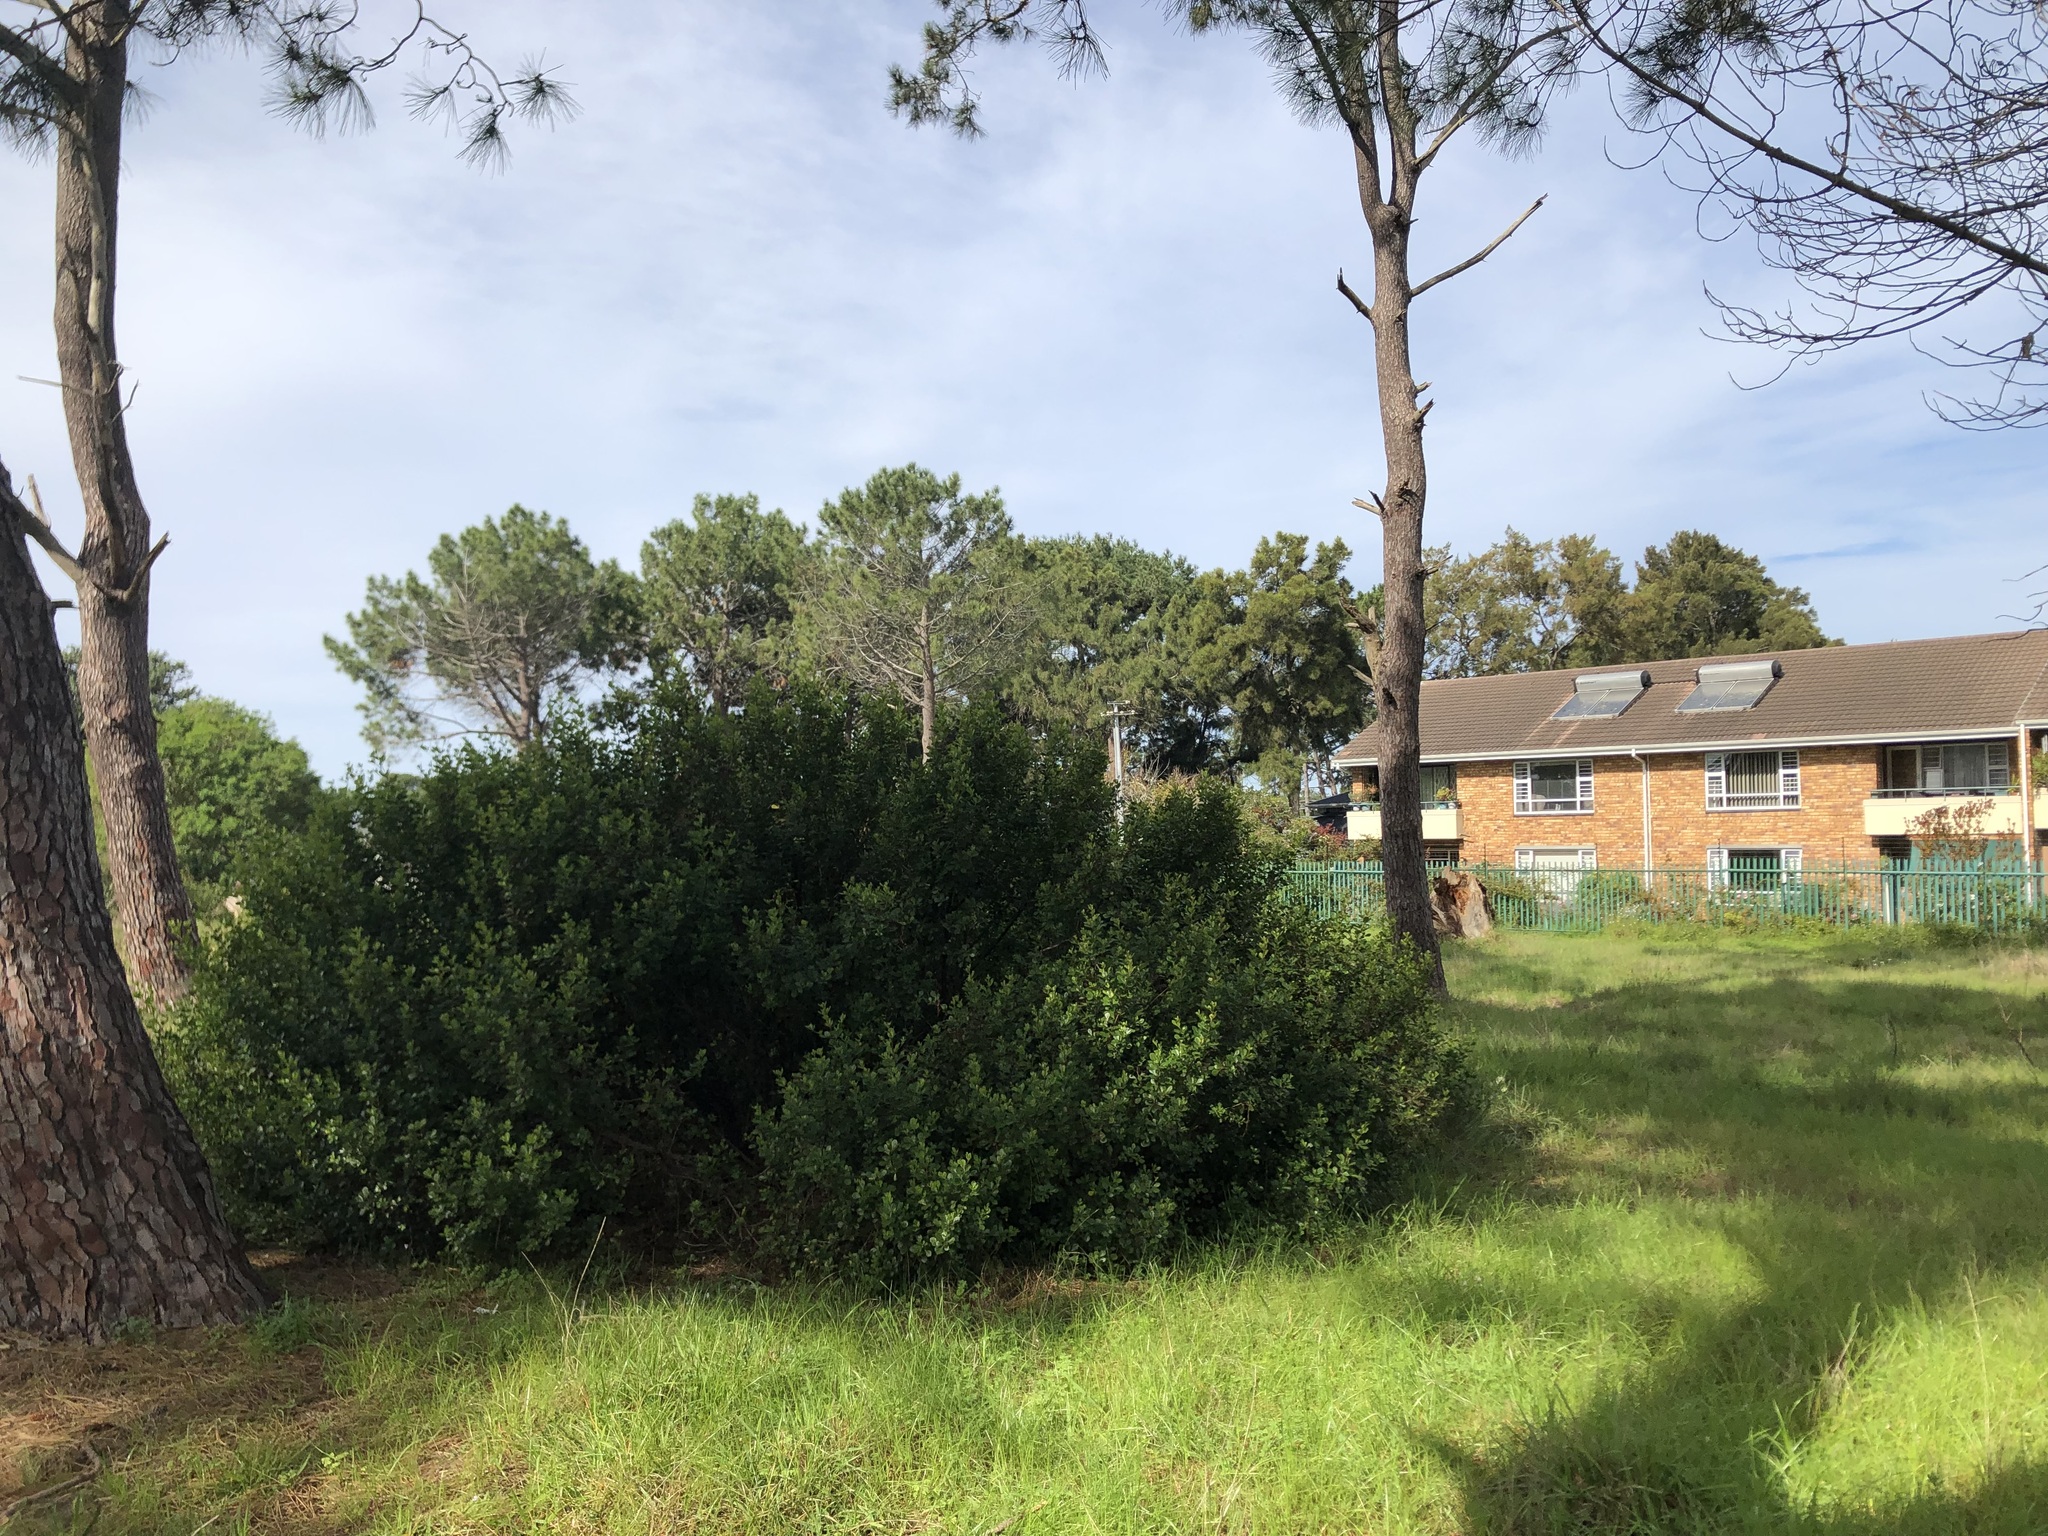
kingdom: Plantae
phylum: Tracheophyta
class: Magnoliopsida
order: Sapindales
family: Anacardiaceae
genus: Searsia
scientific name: Searsia lucida
